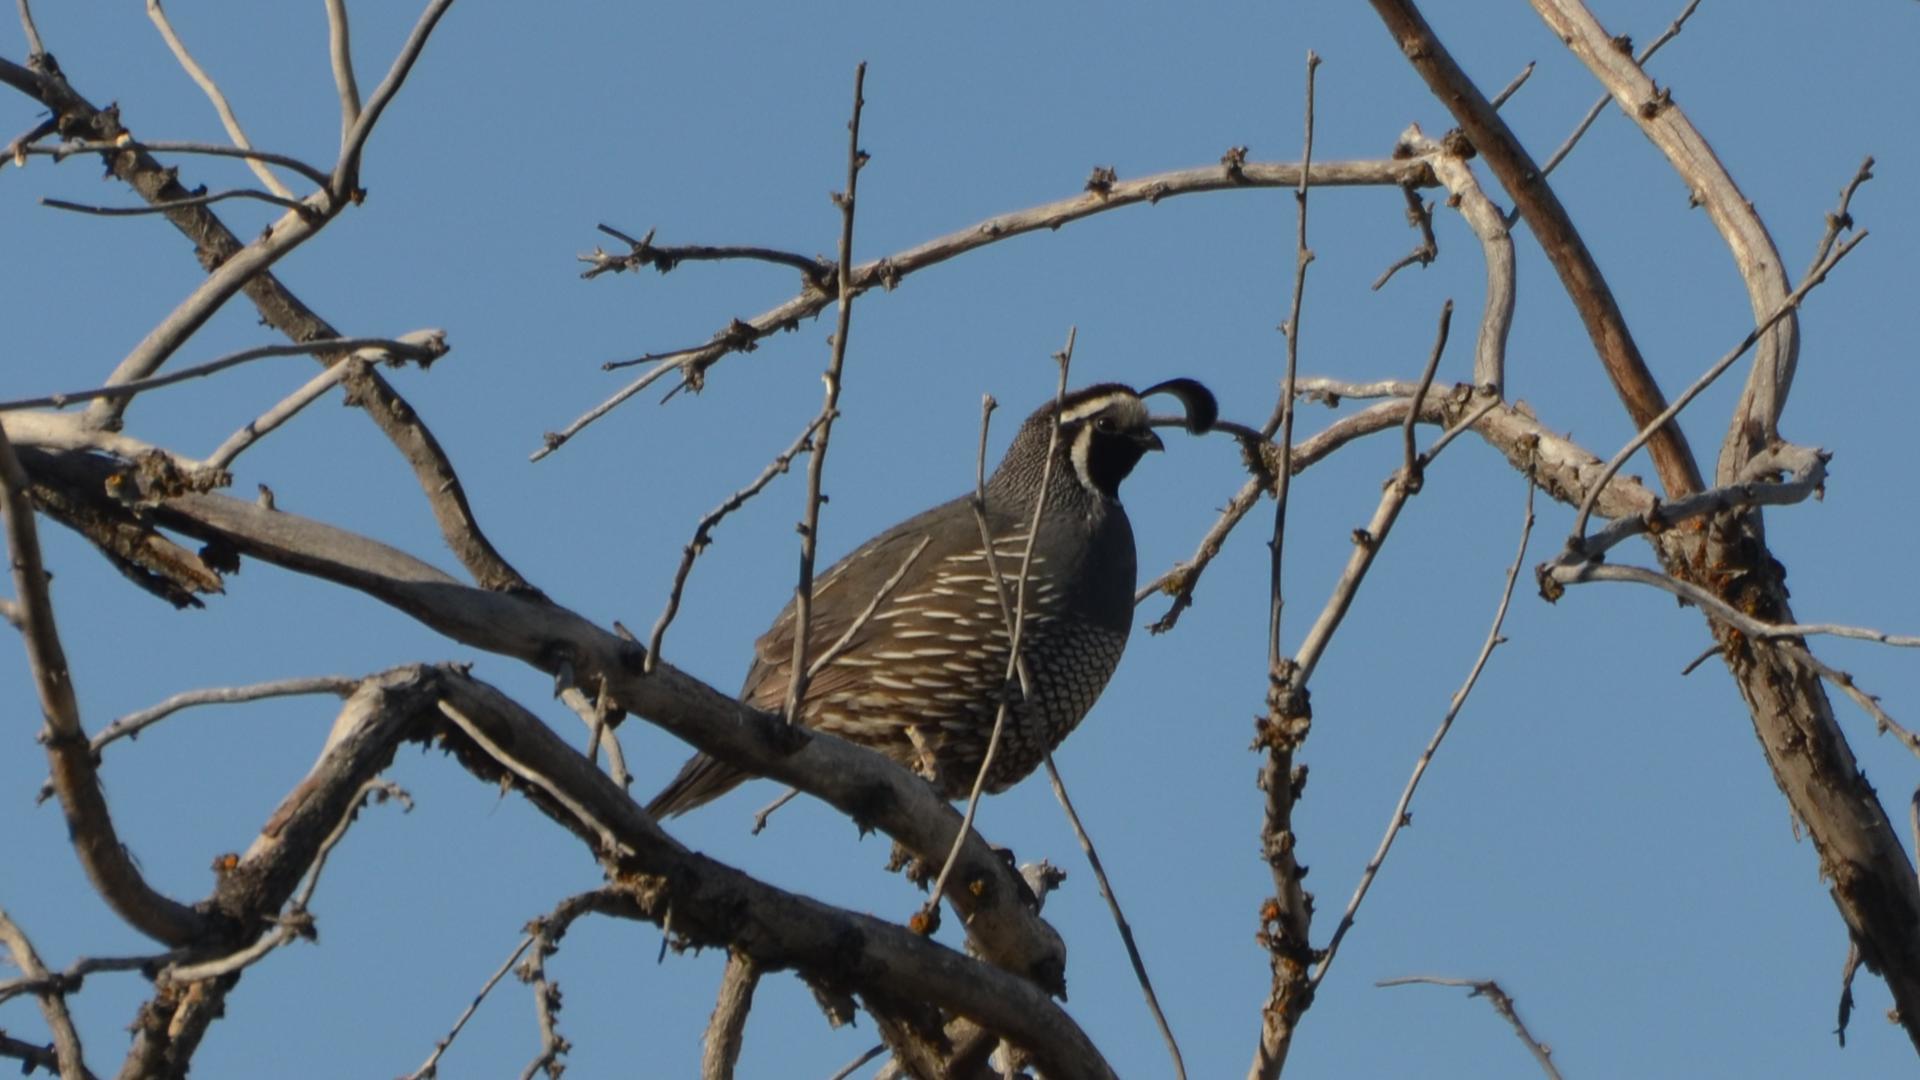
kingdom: Animalia
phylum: Chordata
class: Aves
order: Galliformes
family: Odontophoridae
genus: Callipepla
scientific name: Callipepla californica
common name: California quail
